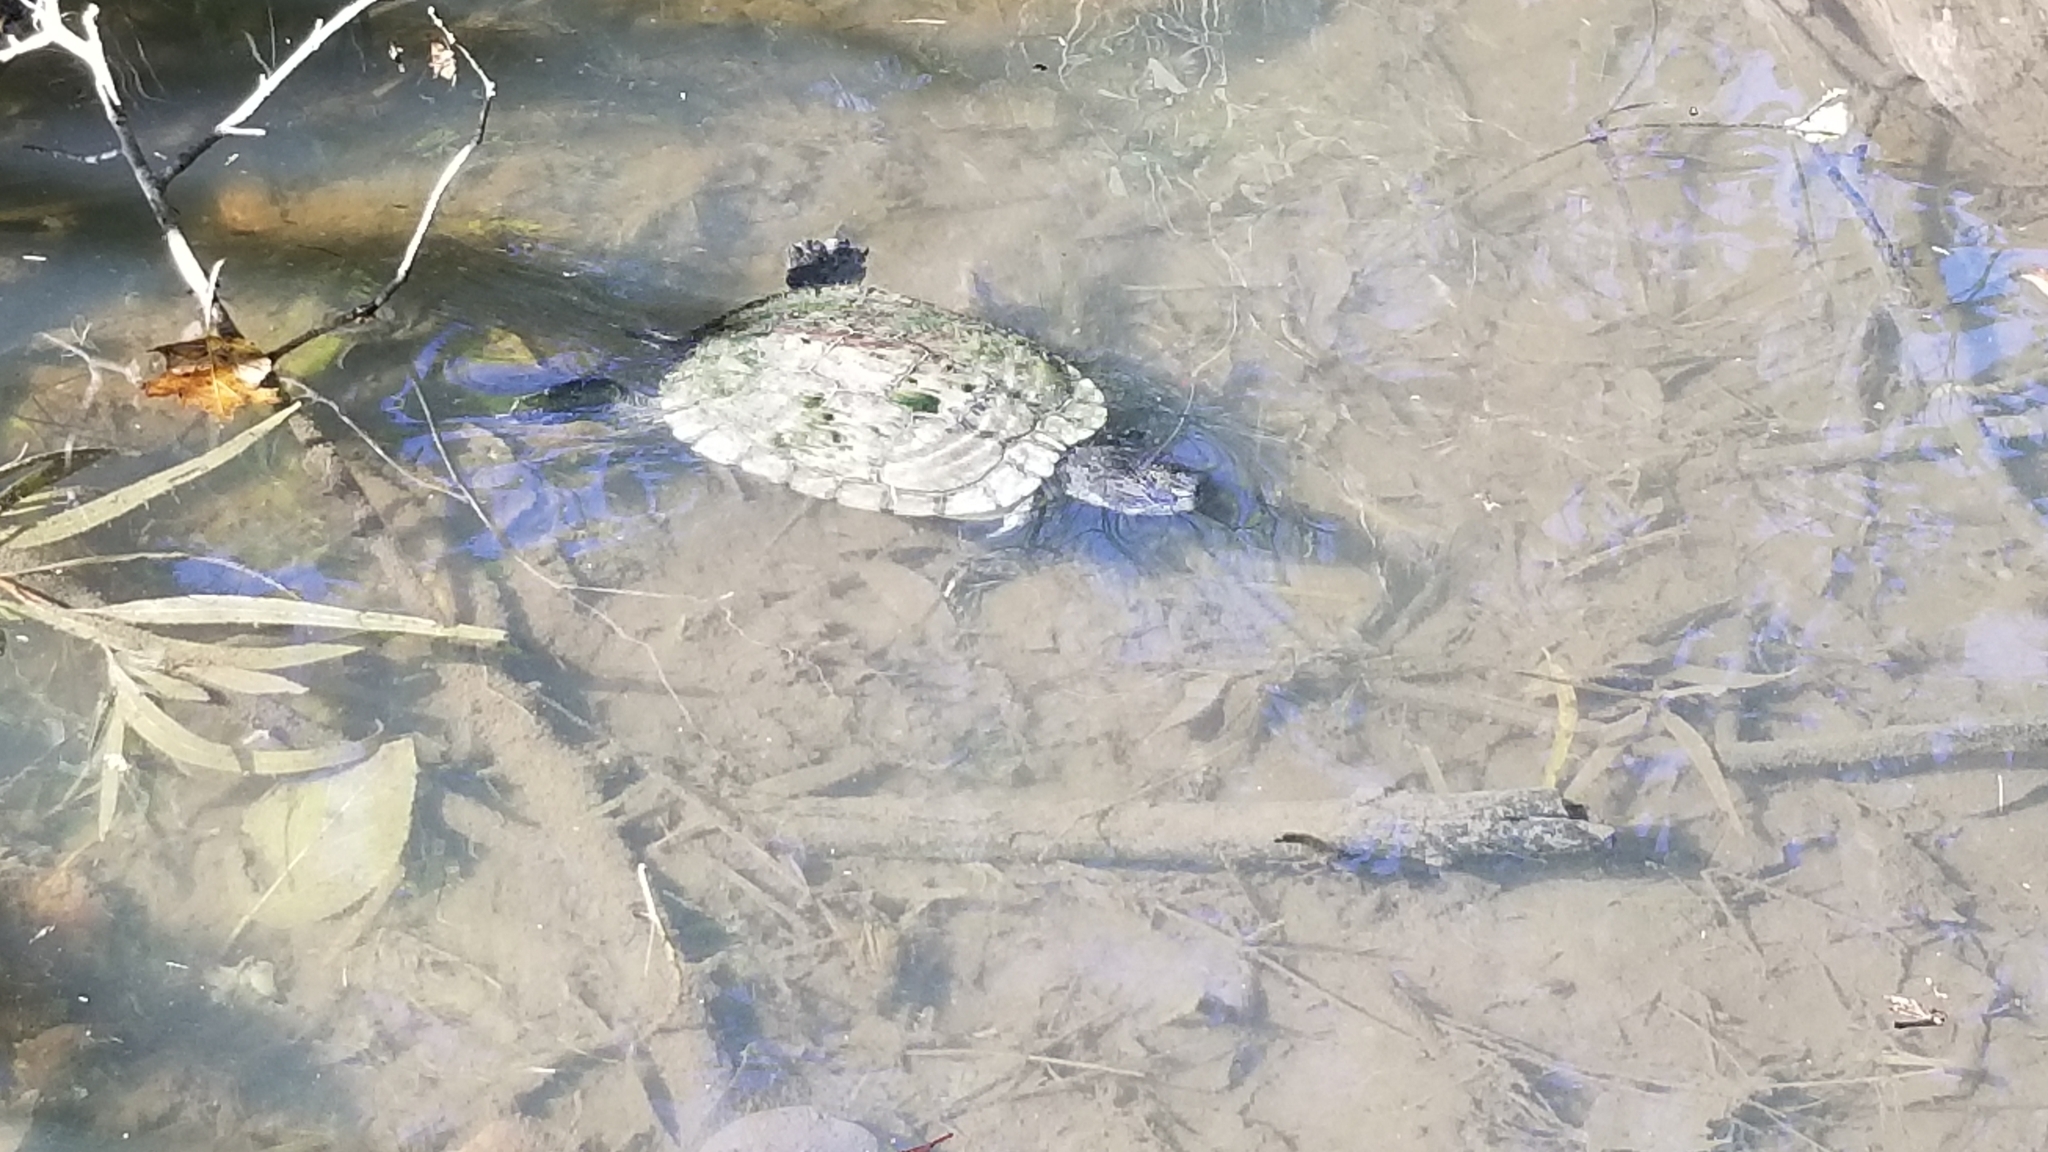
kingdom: Animalia
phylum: Chordata
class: Testudines
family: Emydidae
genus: Trachemys
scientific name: Trachemys scripta
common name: Slider
